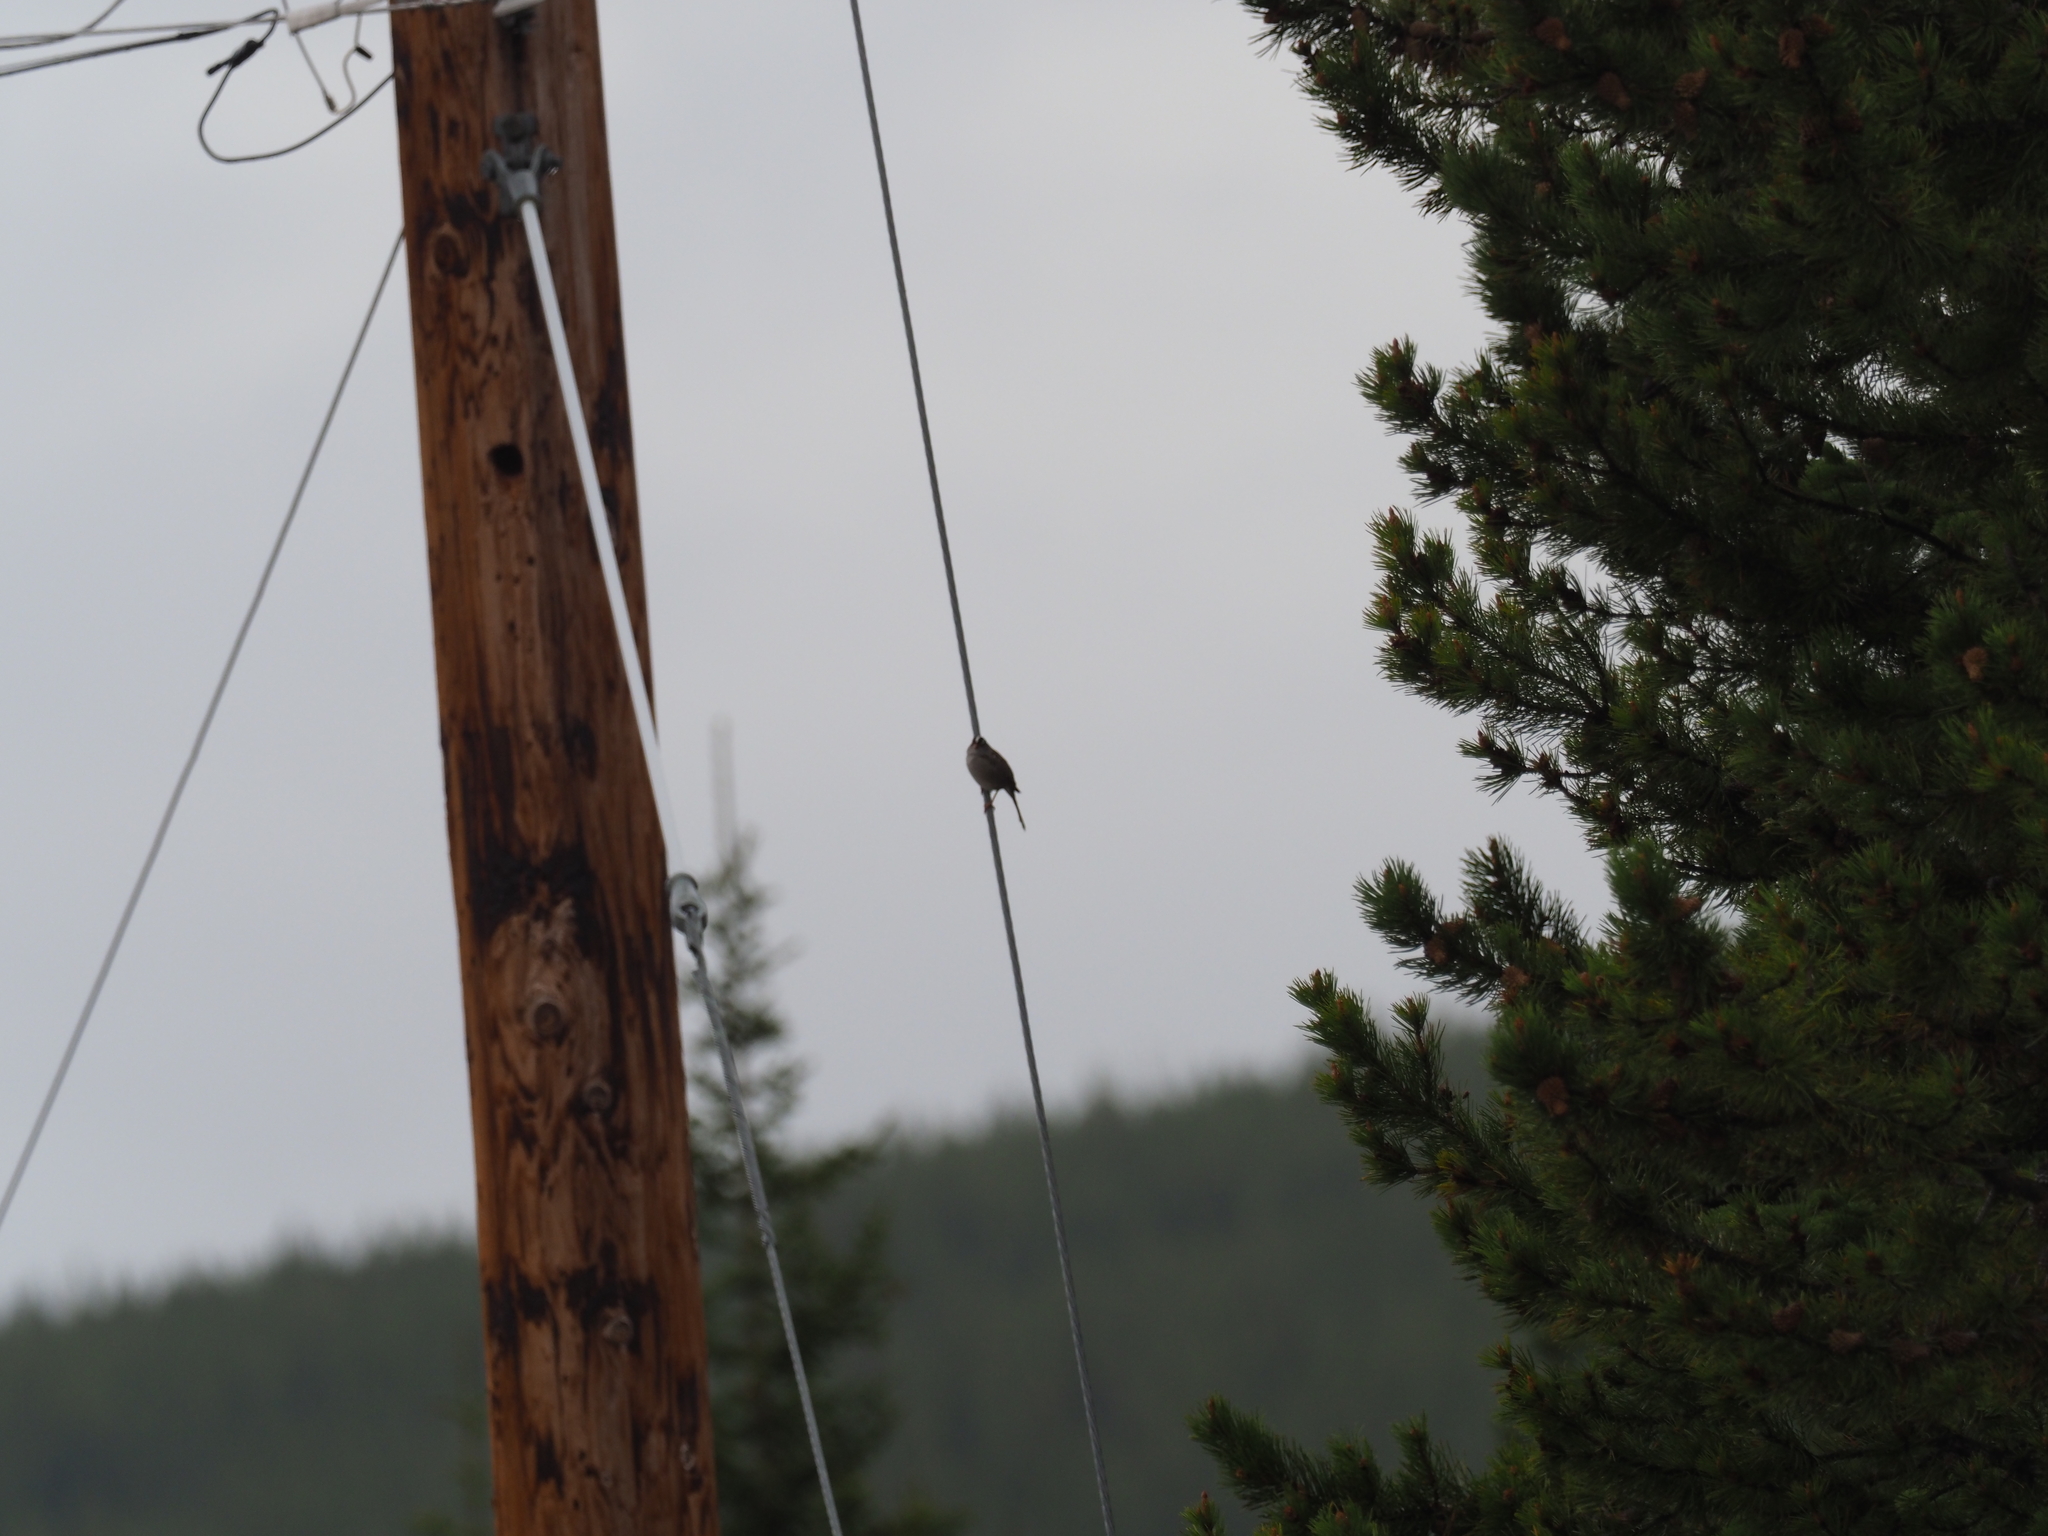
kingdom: Animalia
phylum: Chordata
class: Aves
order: Passeriformes
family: Passerellidae
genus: Zonotrichia
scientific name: Zonotrichia leucophrys
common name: White-crowned sparrow
